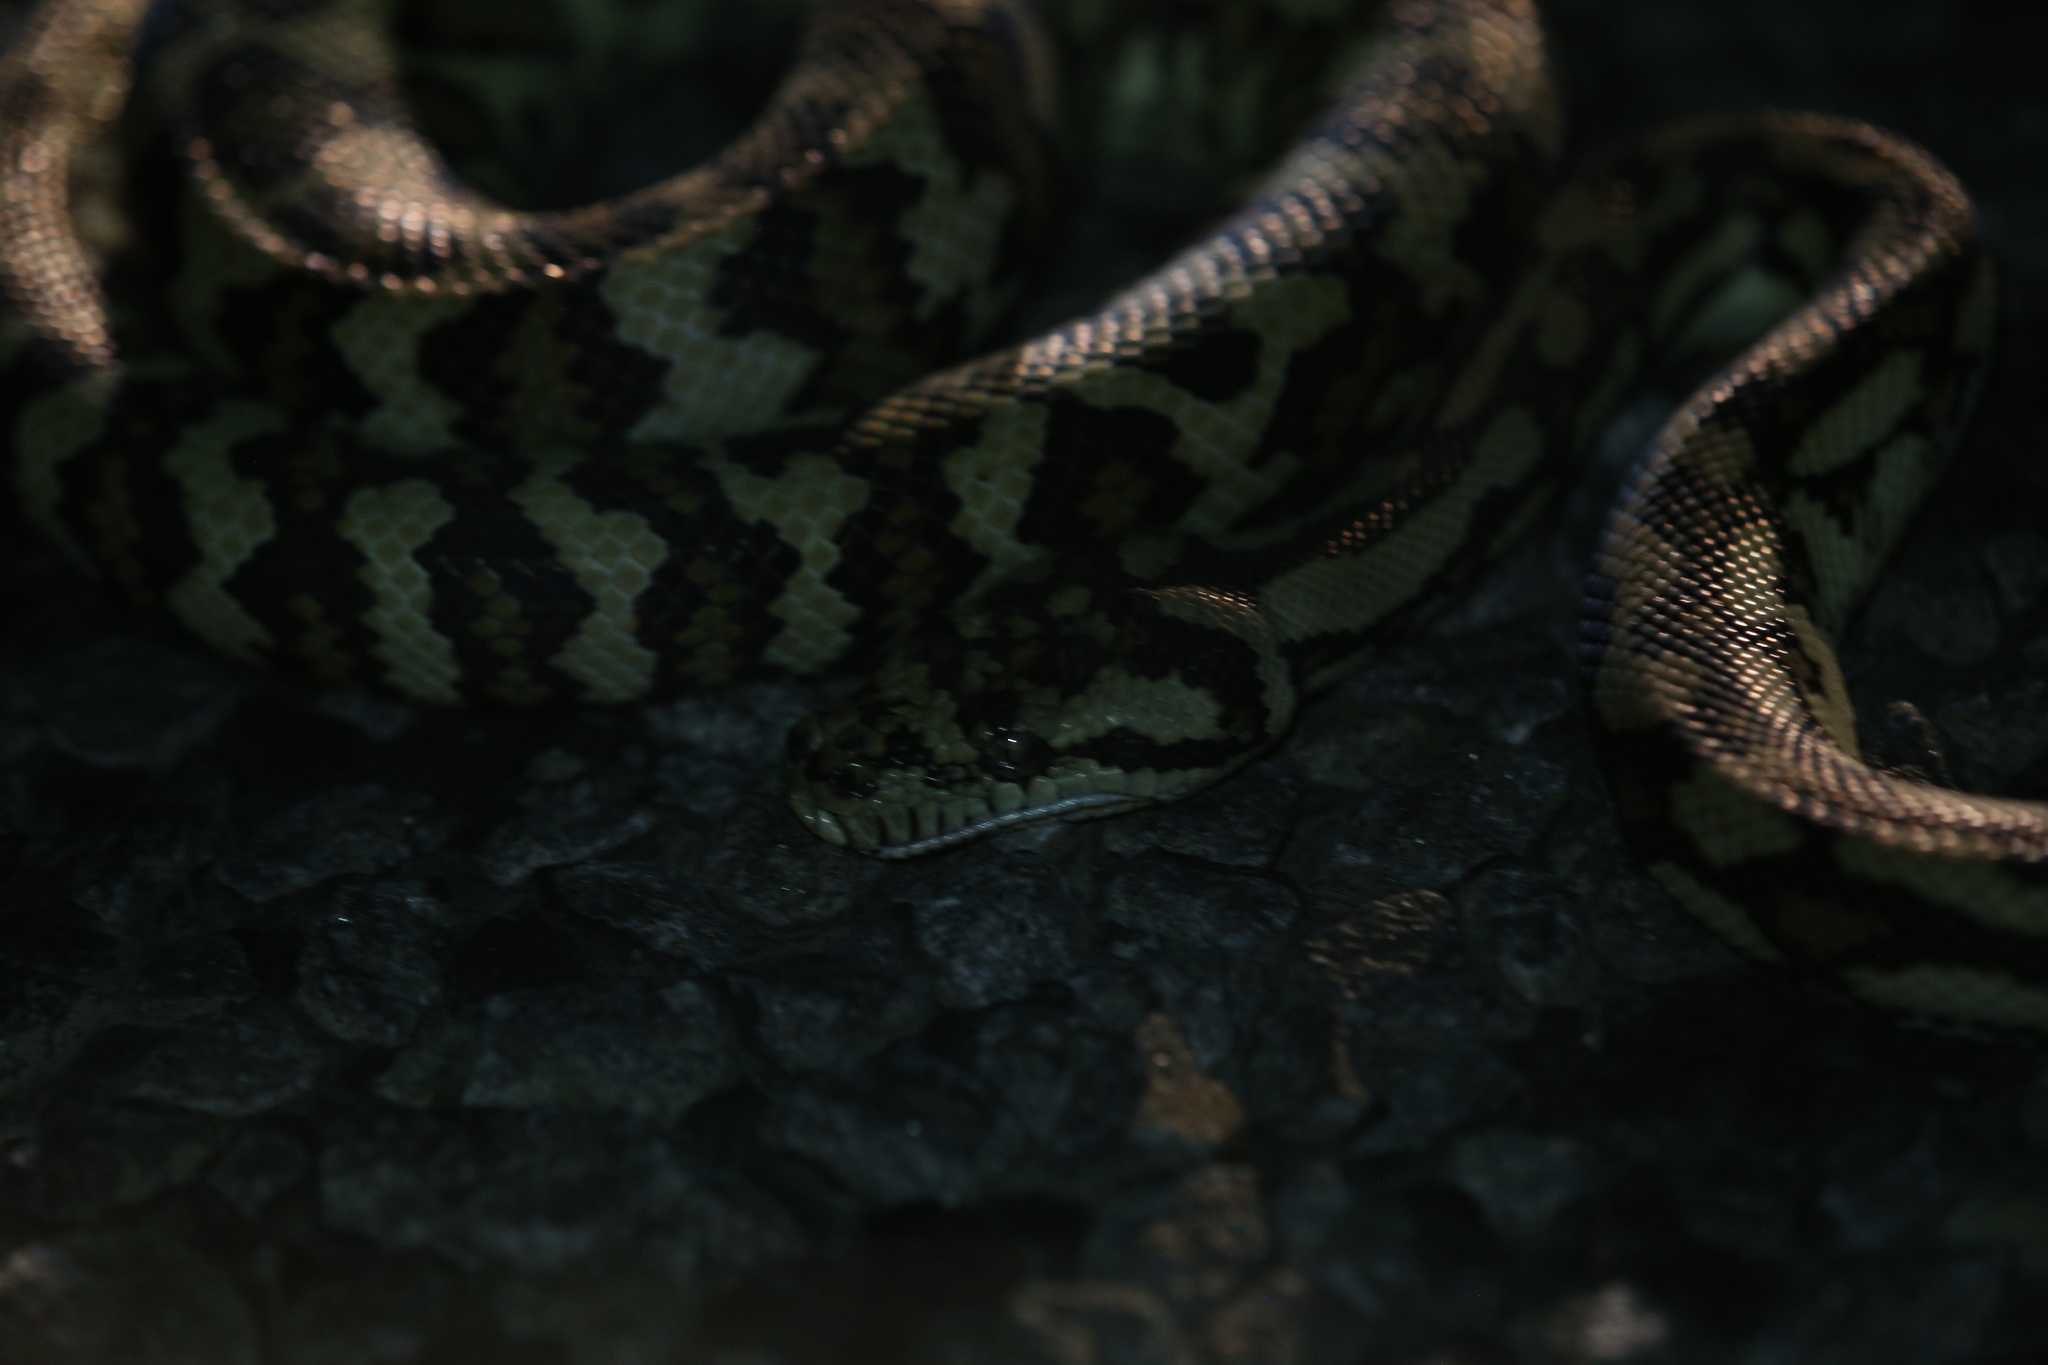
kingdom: Animalia
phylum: Chordata
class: Squamata
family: Pythonidae
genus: Morelia
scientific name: Morelia spilota
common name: Carpet python
